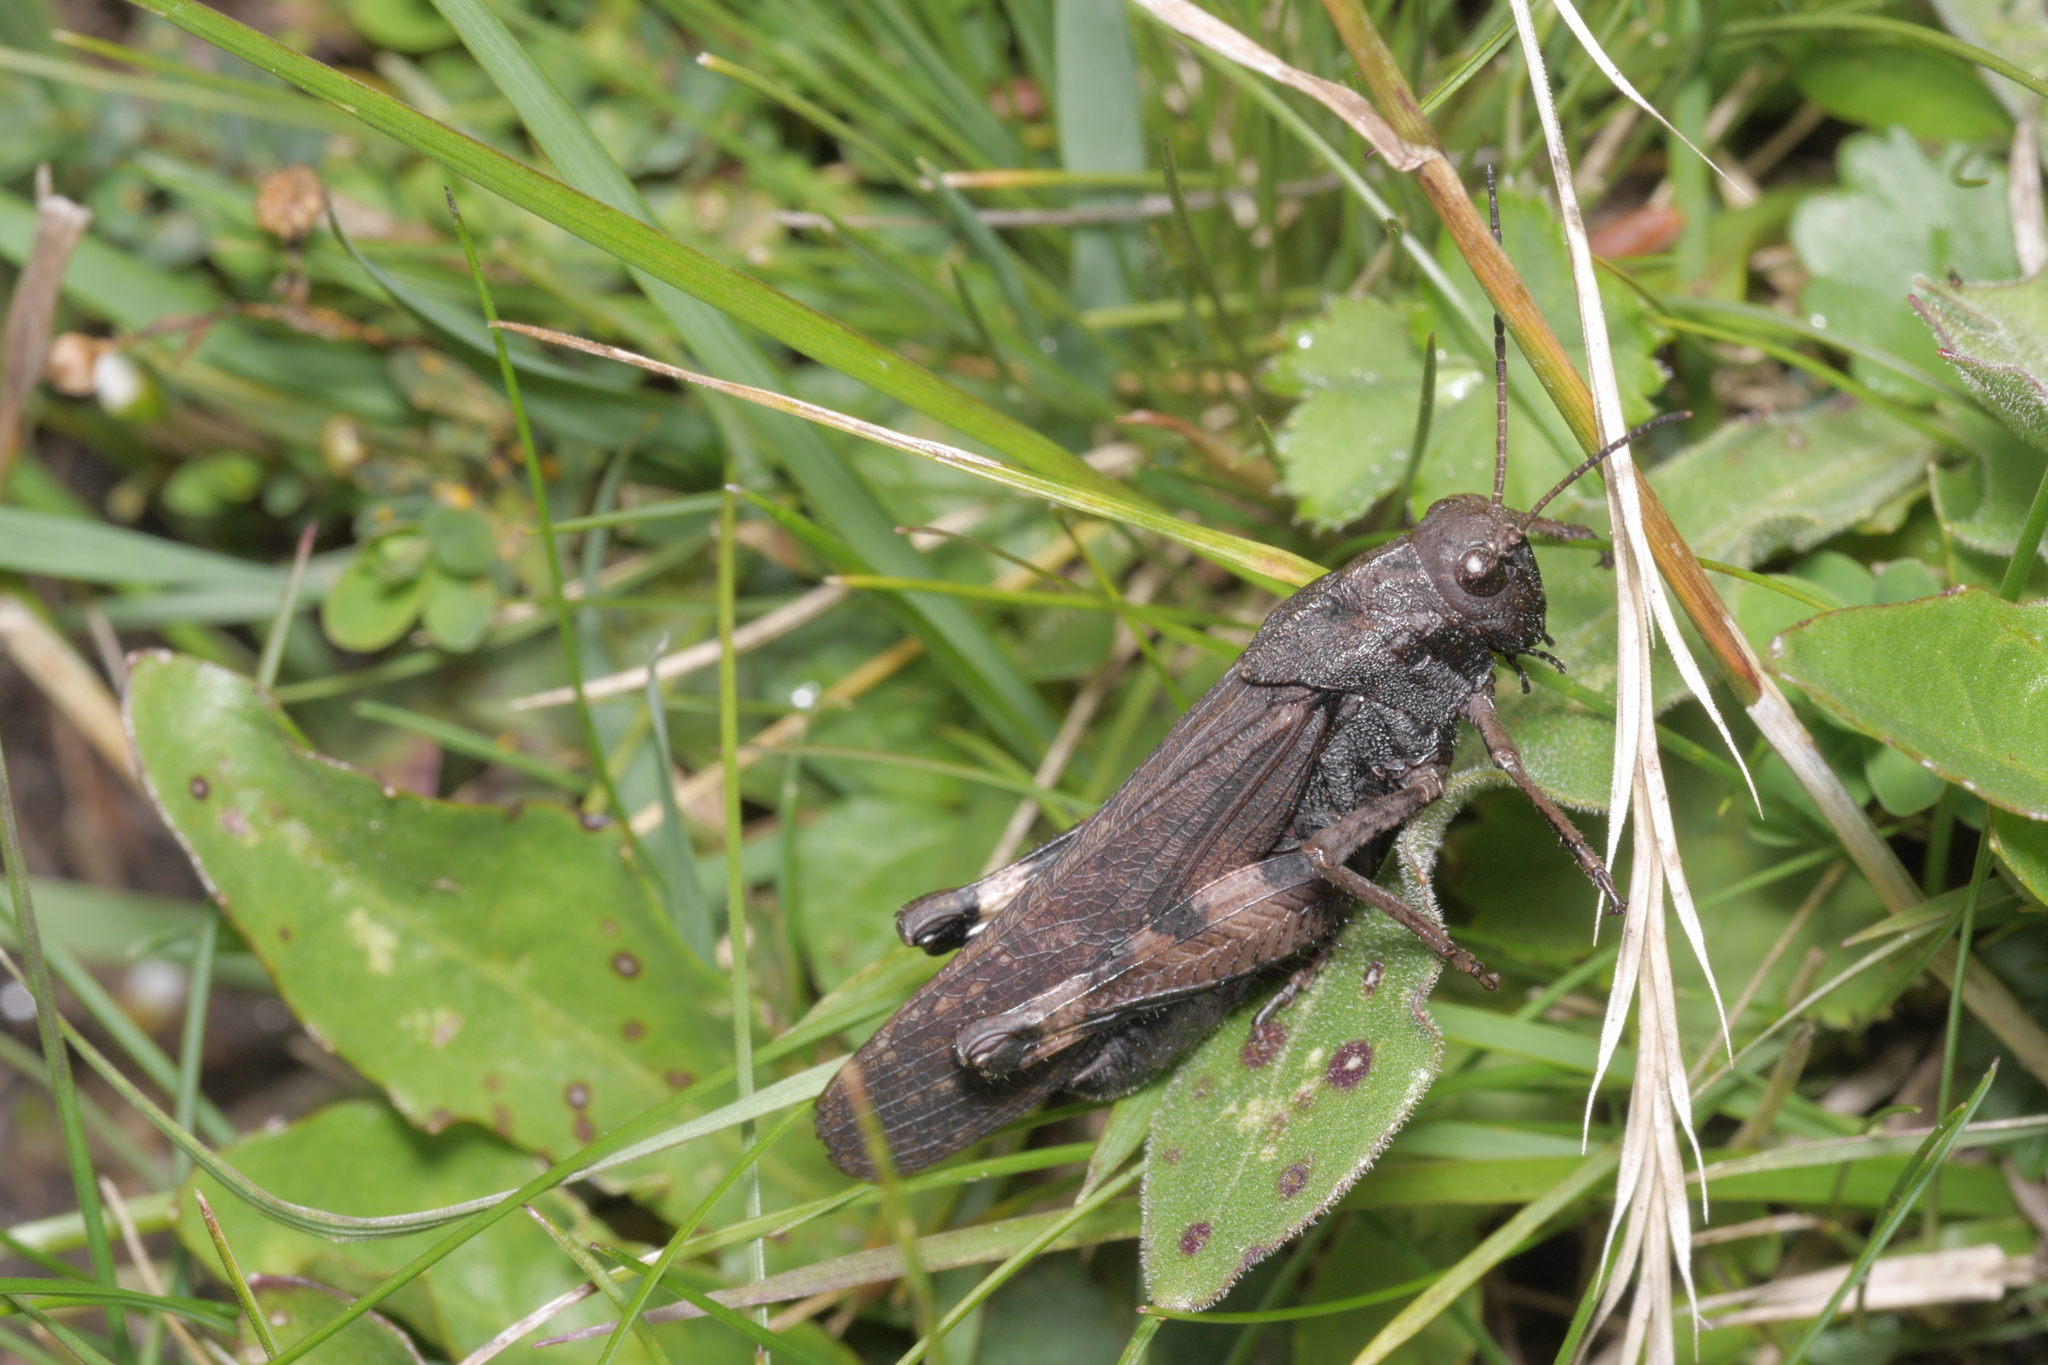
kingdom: Animalia
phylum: Arthropoda
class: Insecta
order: Orthoptera
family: Acrididae
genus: Psophus
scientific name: Psophus stridulus
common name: Rattle grasshopper
